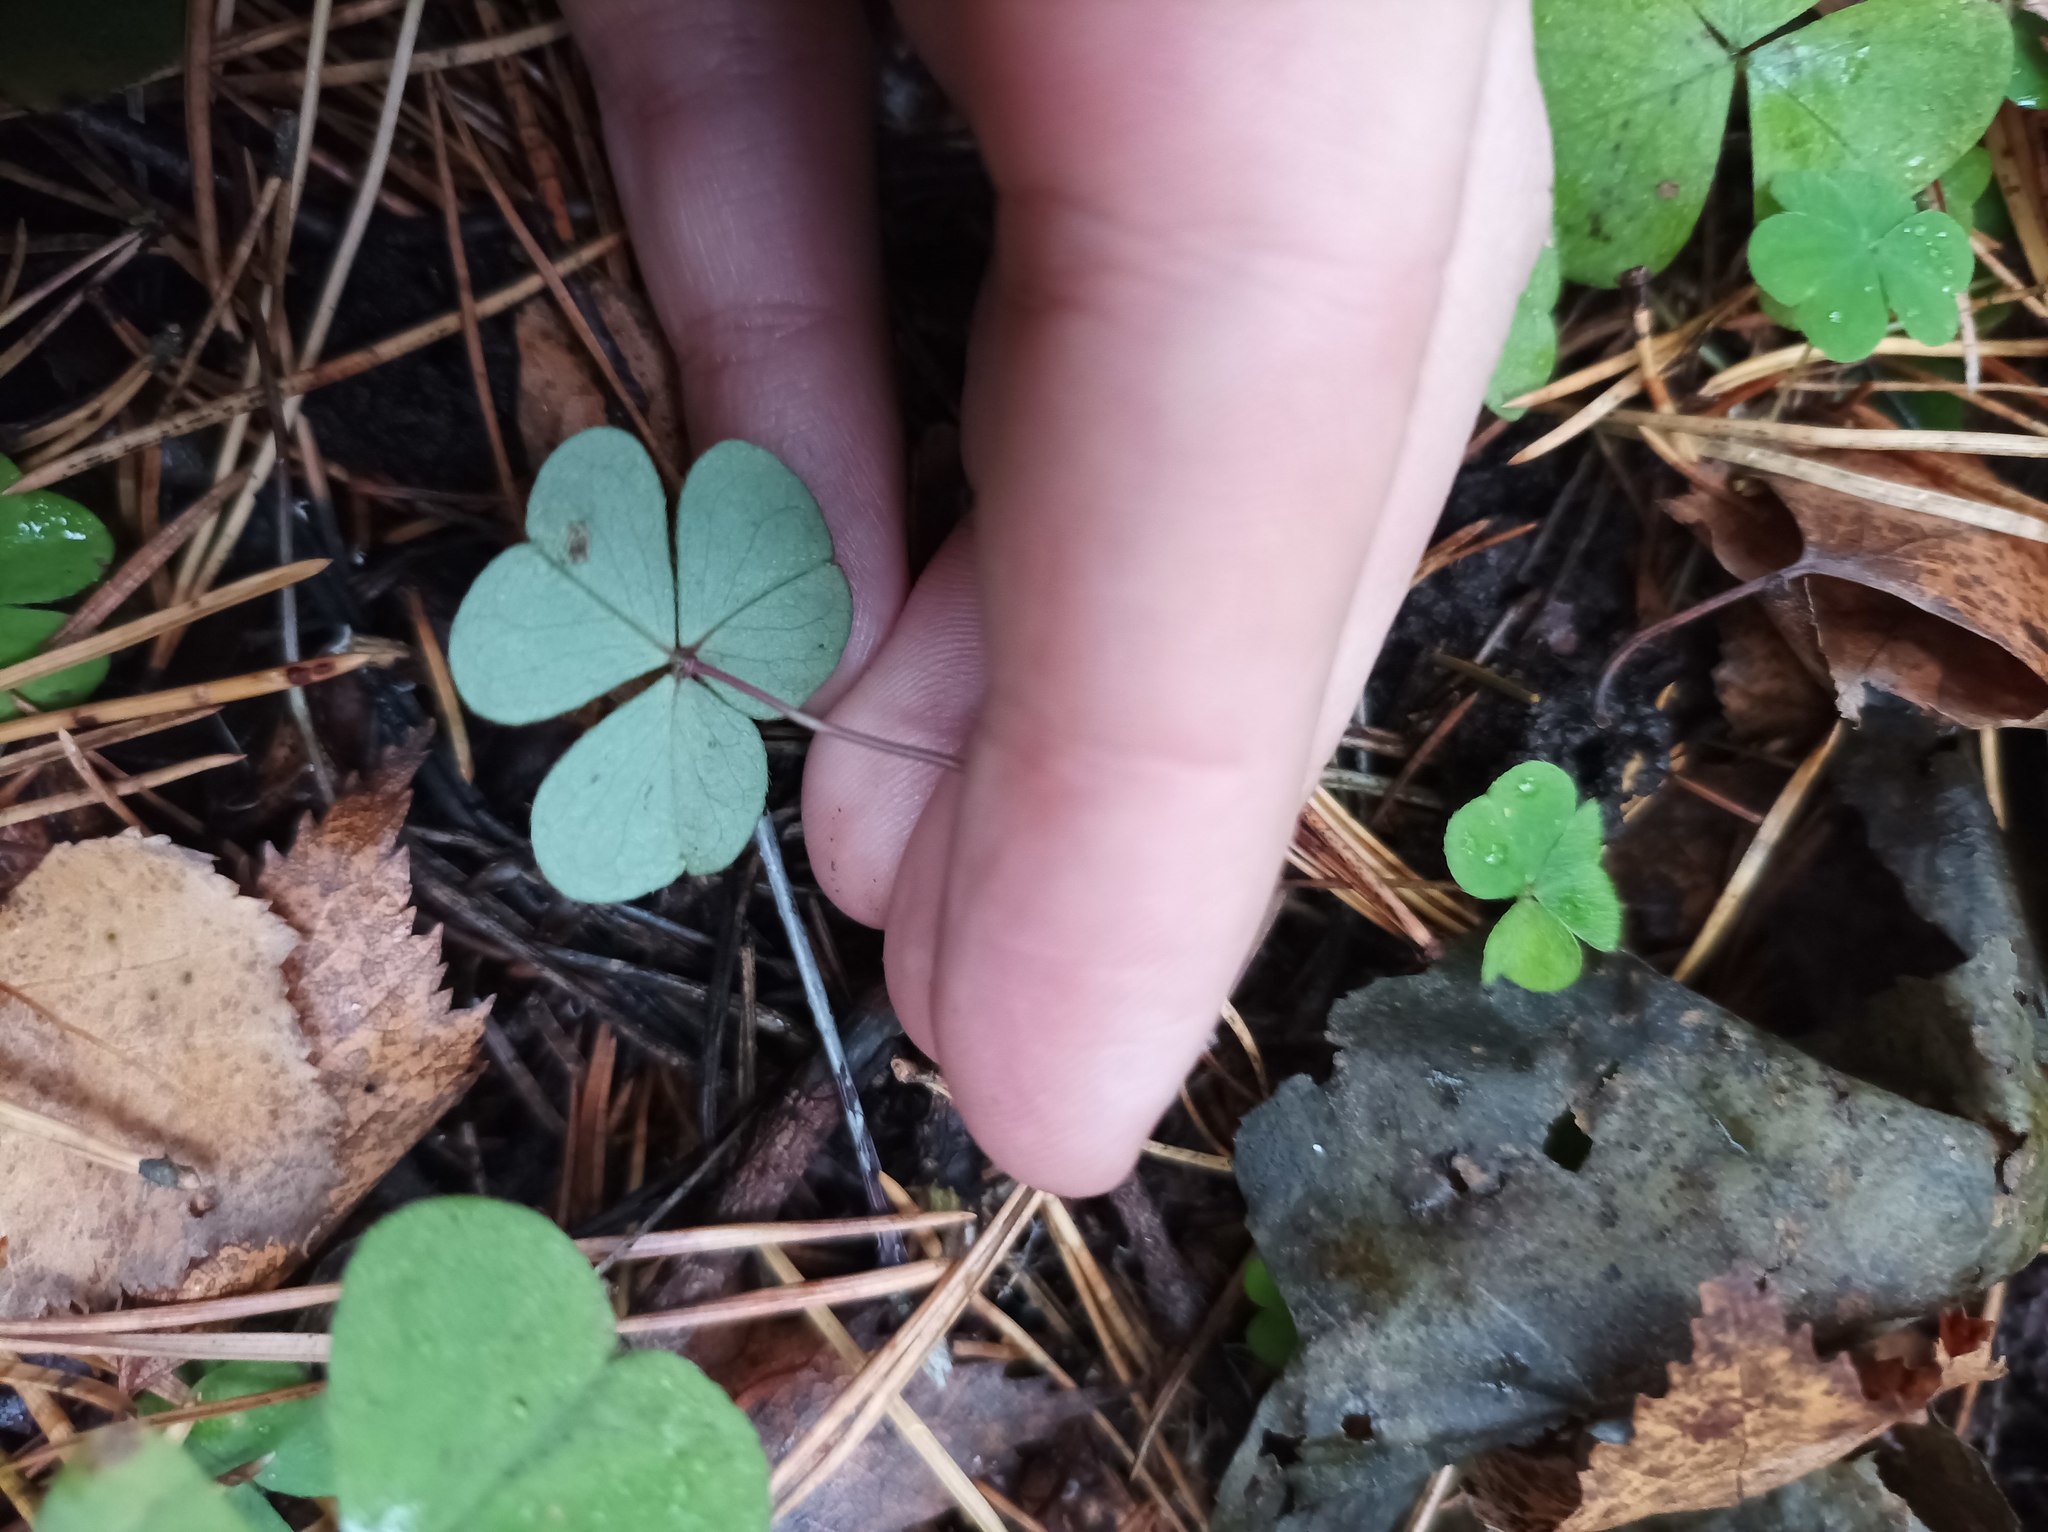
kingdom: Plantae
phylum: Tracheophyta
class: Magnoliopsida
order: Oxalidales
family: Oxalidaceae
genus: Oxalis
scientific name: Oxalis acetosella
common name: Wood-sorrel
